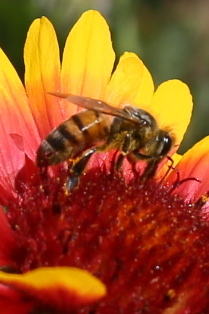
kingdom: Animalia
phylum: Arthropoda
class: Insecta
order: Hymenoptera
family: Apidae
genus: Apis
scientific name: Apis mellifera
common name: Honey bee
